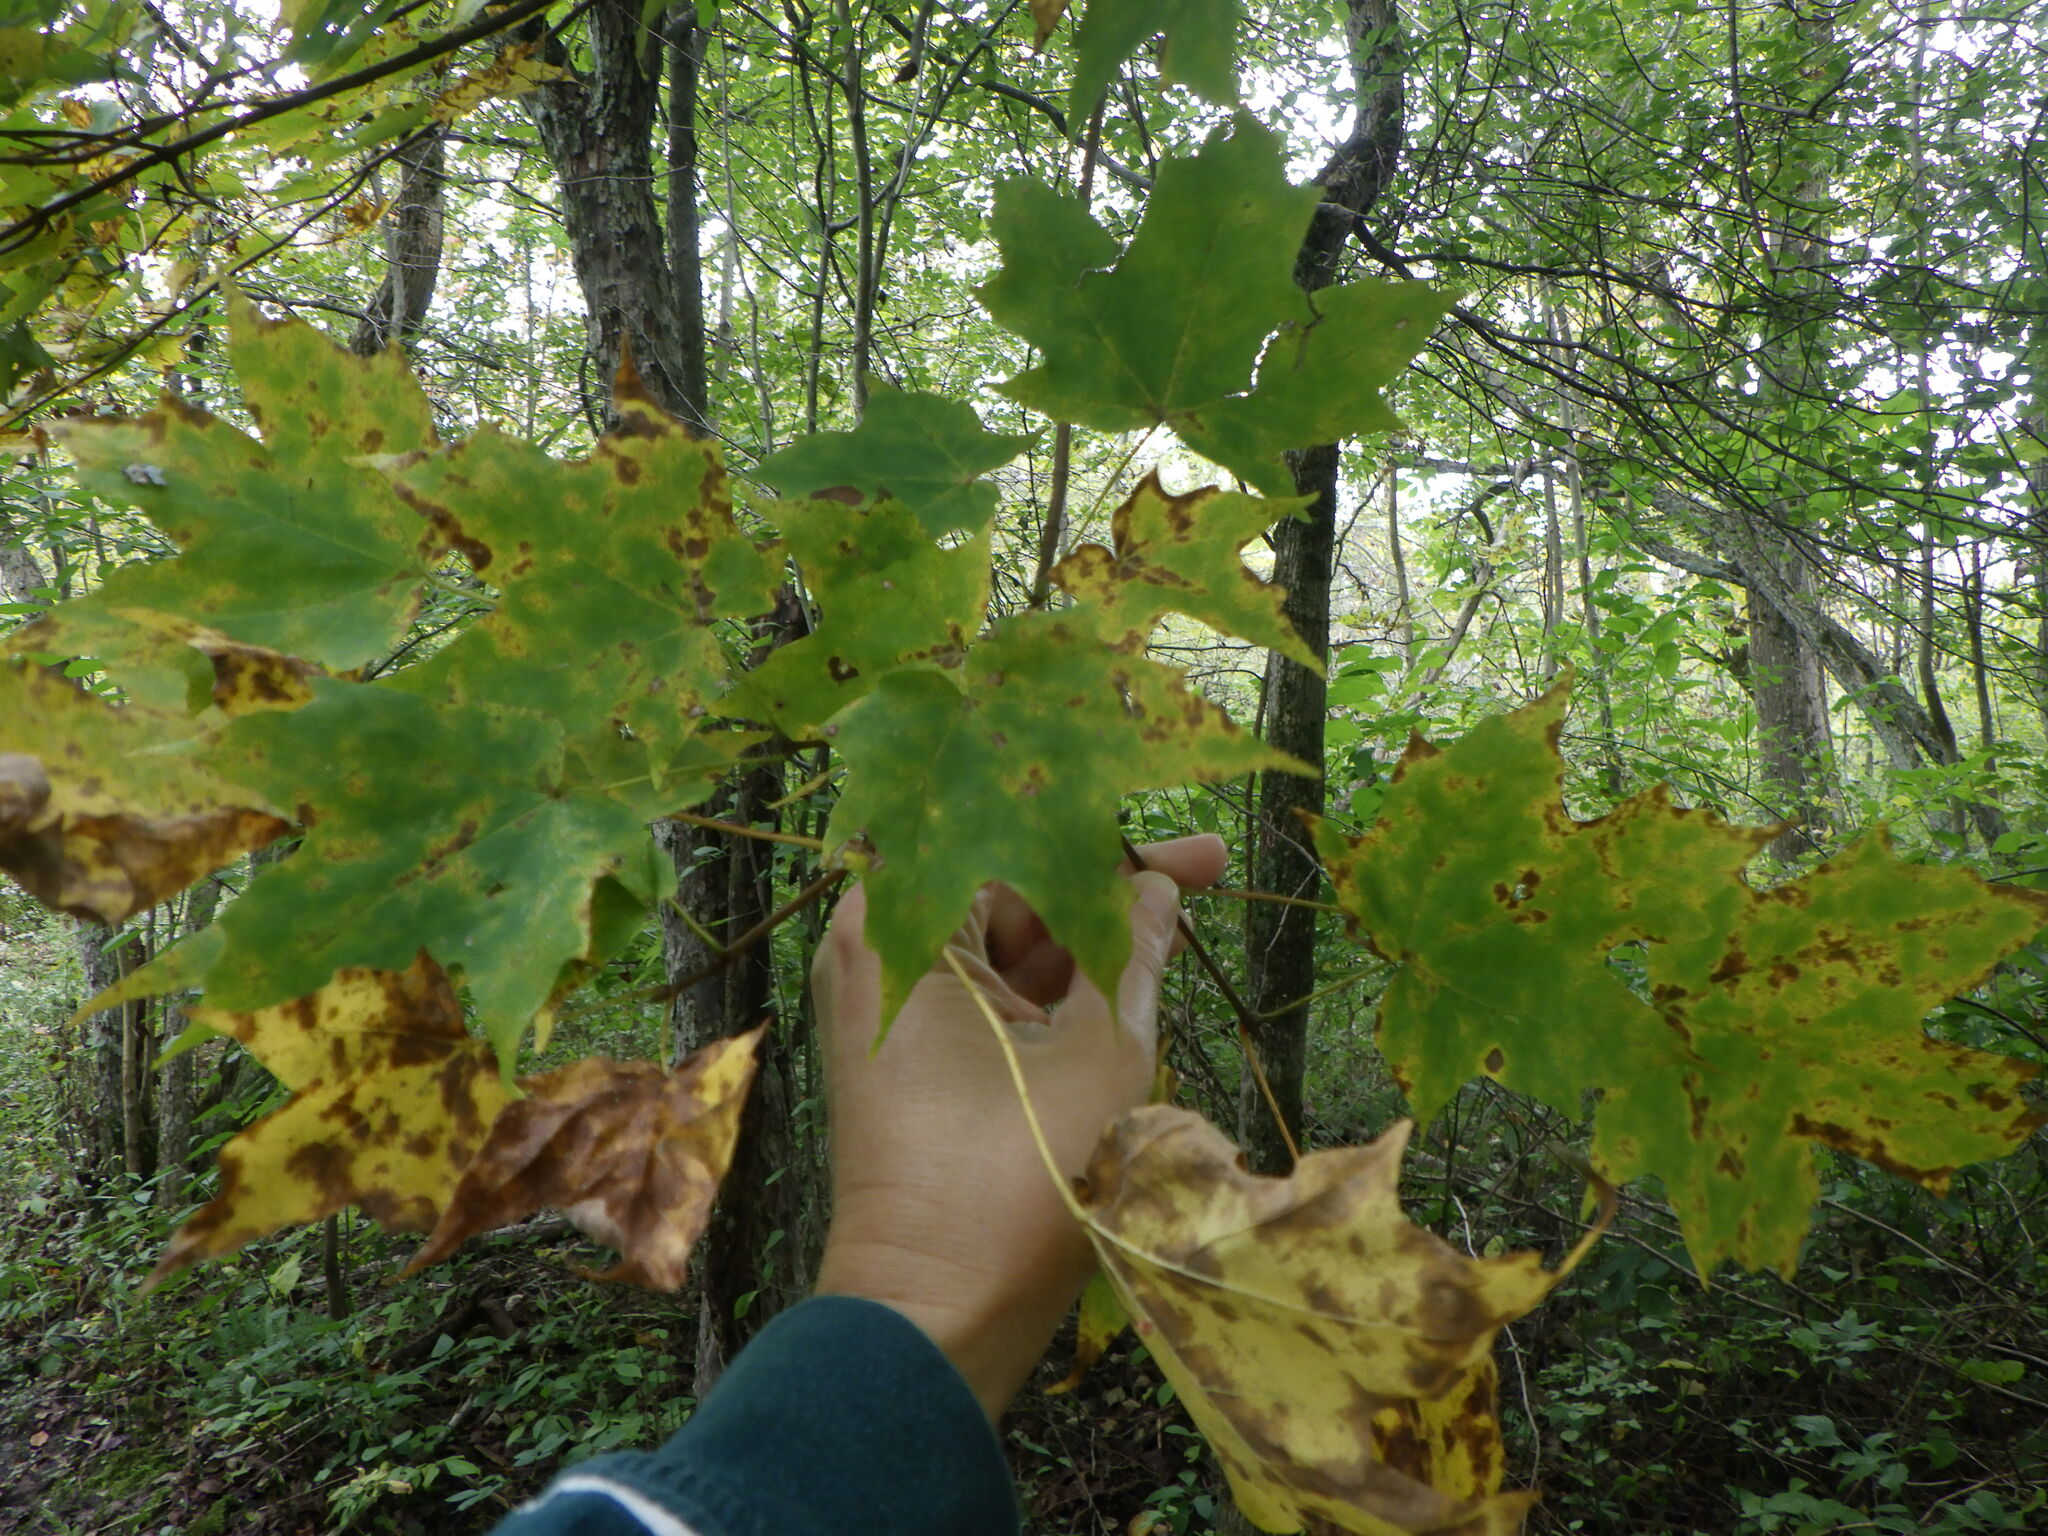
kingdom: Plantae
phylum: Tracheophyta
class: Magnoliopsida
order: Sapindales
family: Sapindaceae
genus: Acer
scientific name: Acer saccharum
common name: Sugar maple
